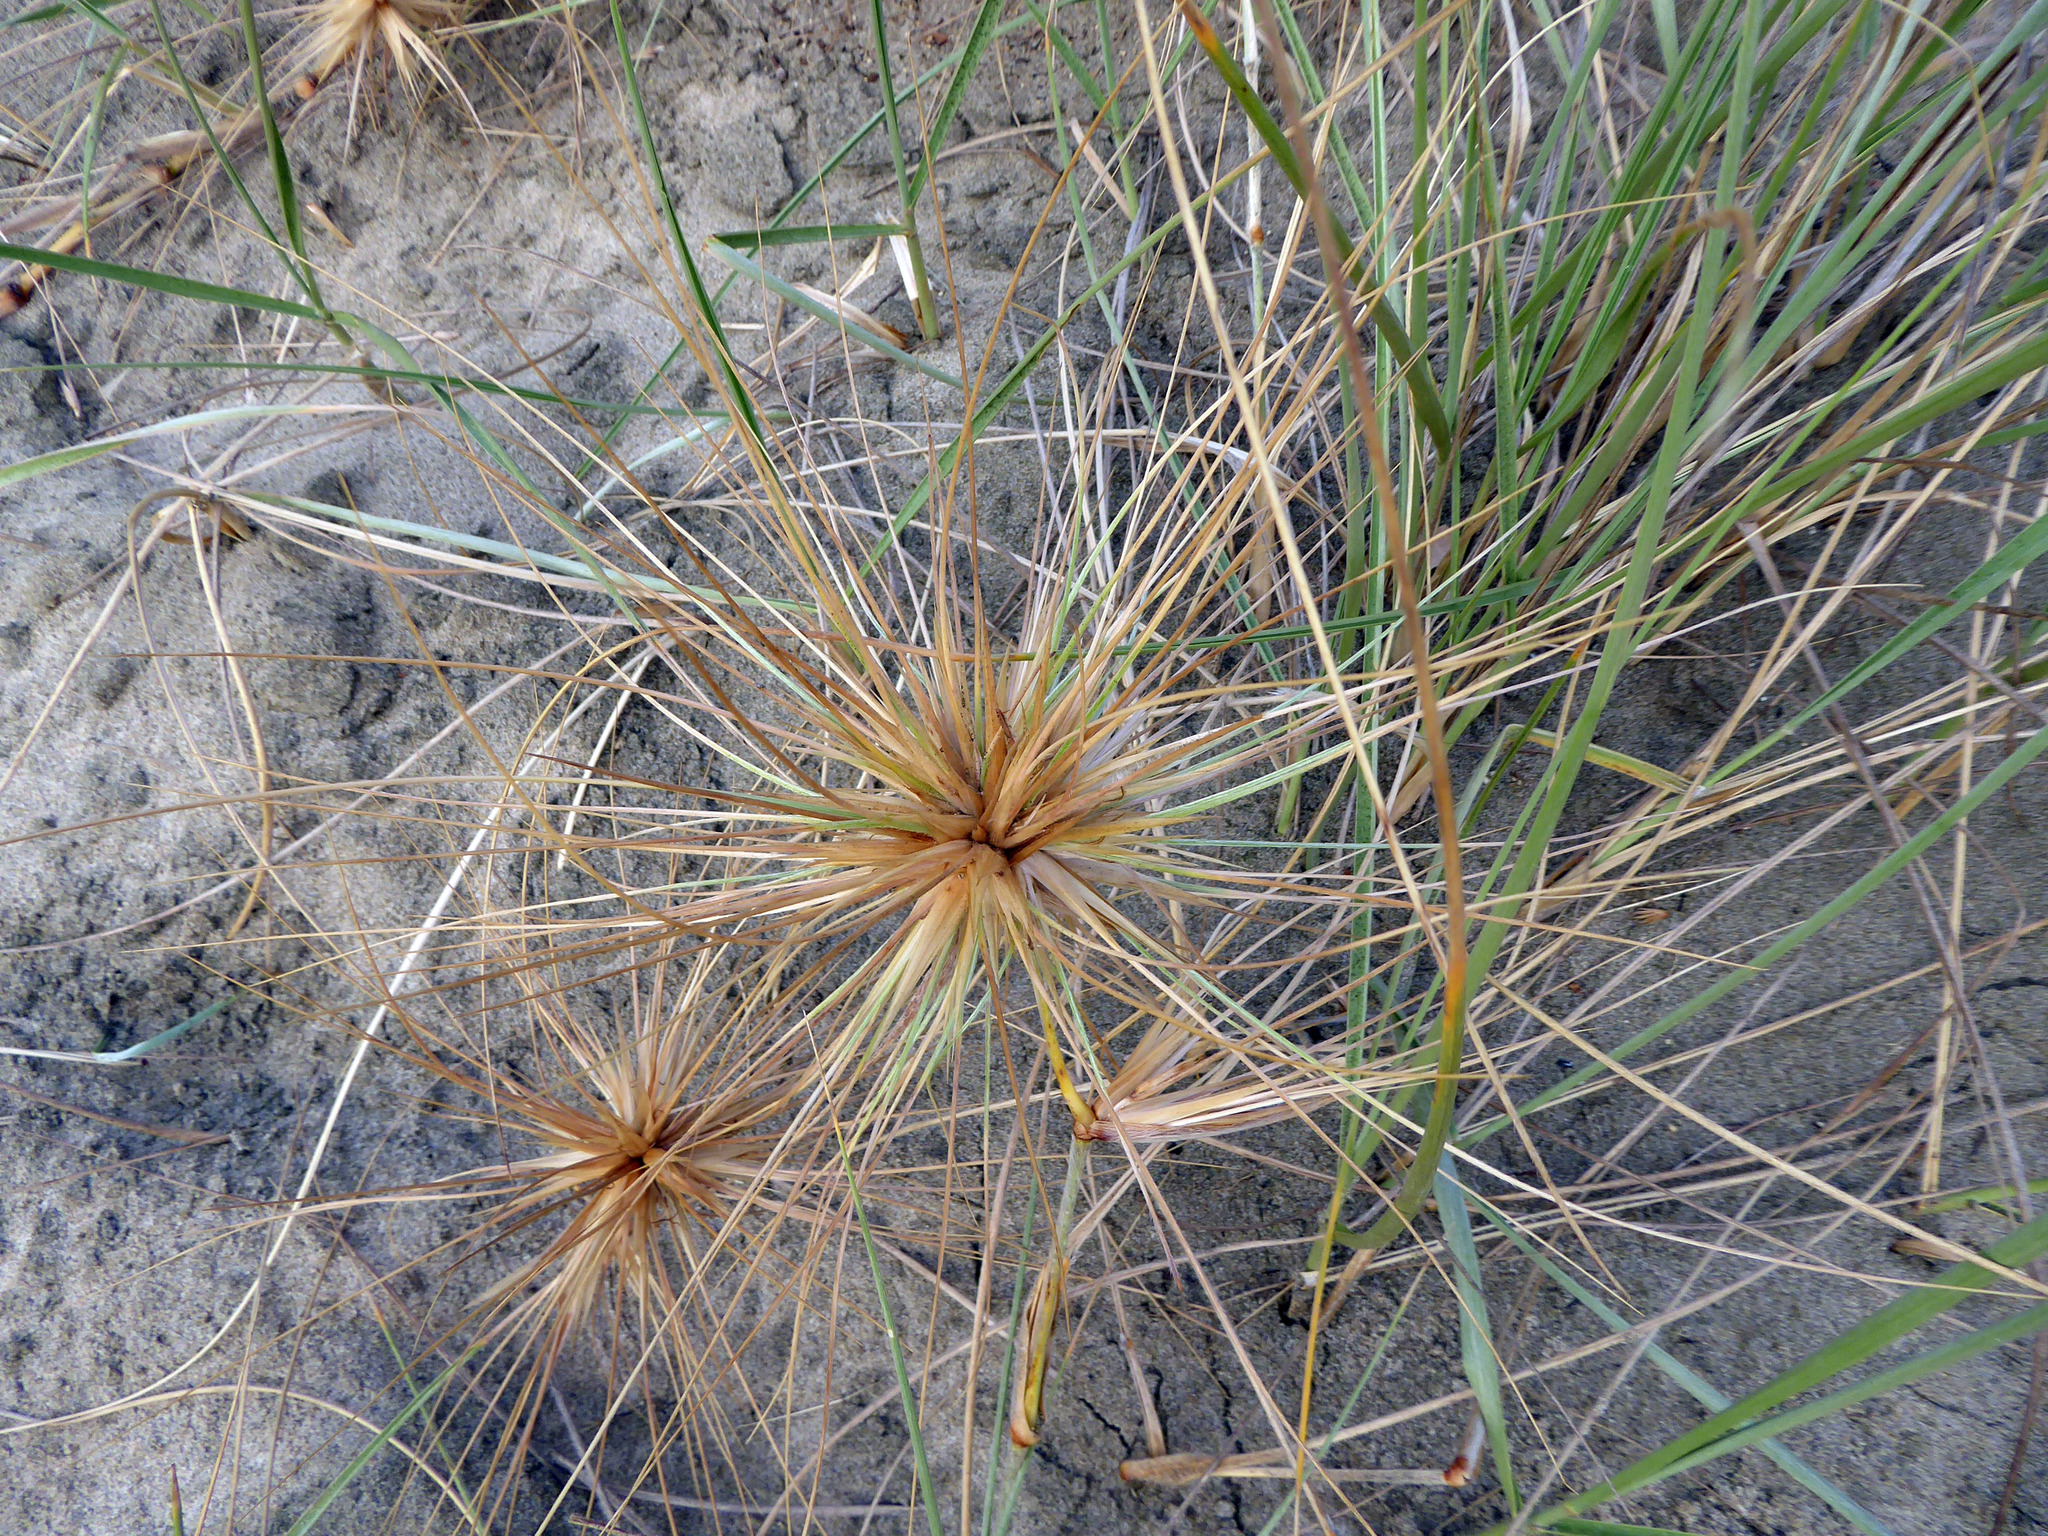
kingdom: Plantae
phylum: Tracheophyta
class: Liliopsida
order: Poales
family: Poaceae
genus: Spinifex
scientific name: Spinifex sericeus
